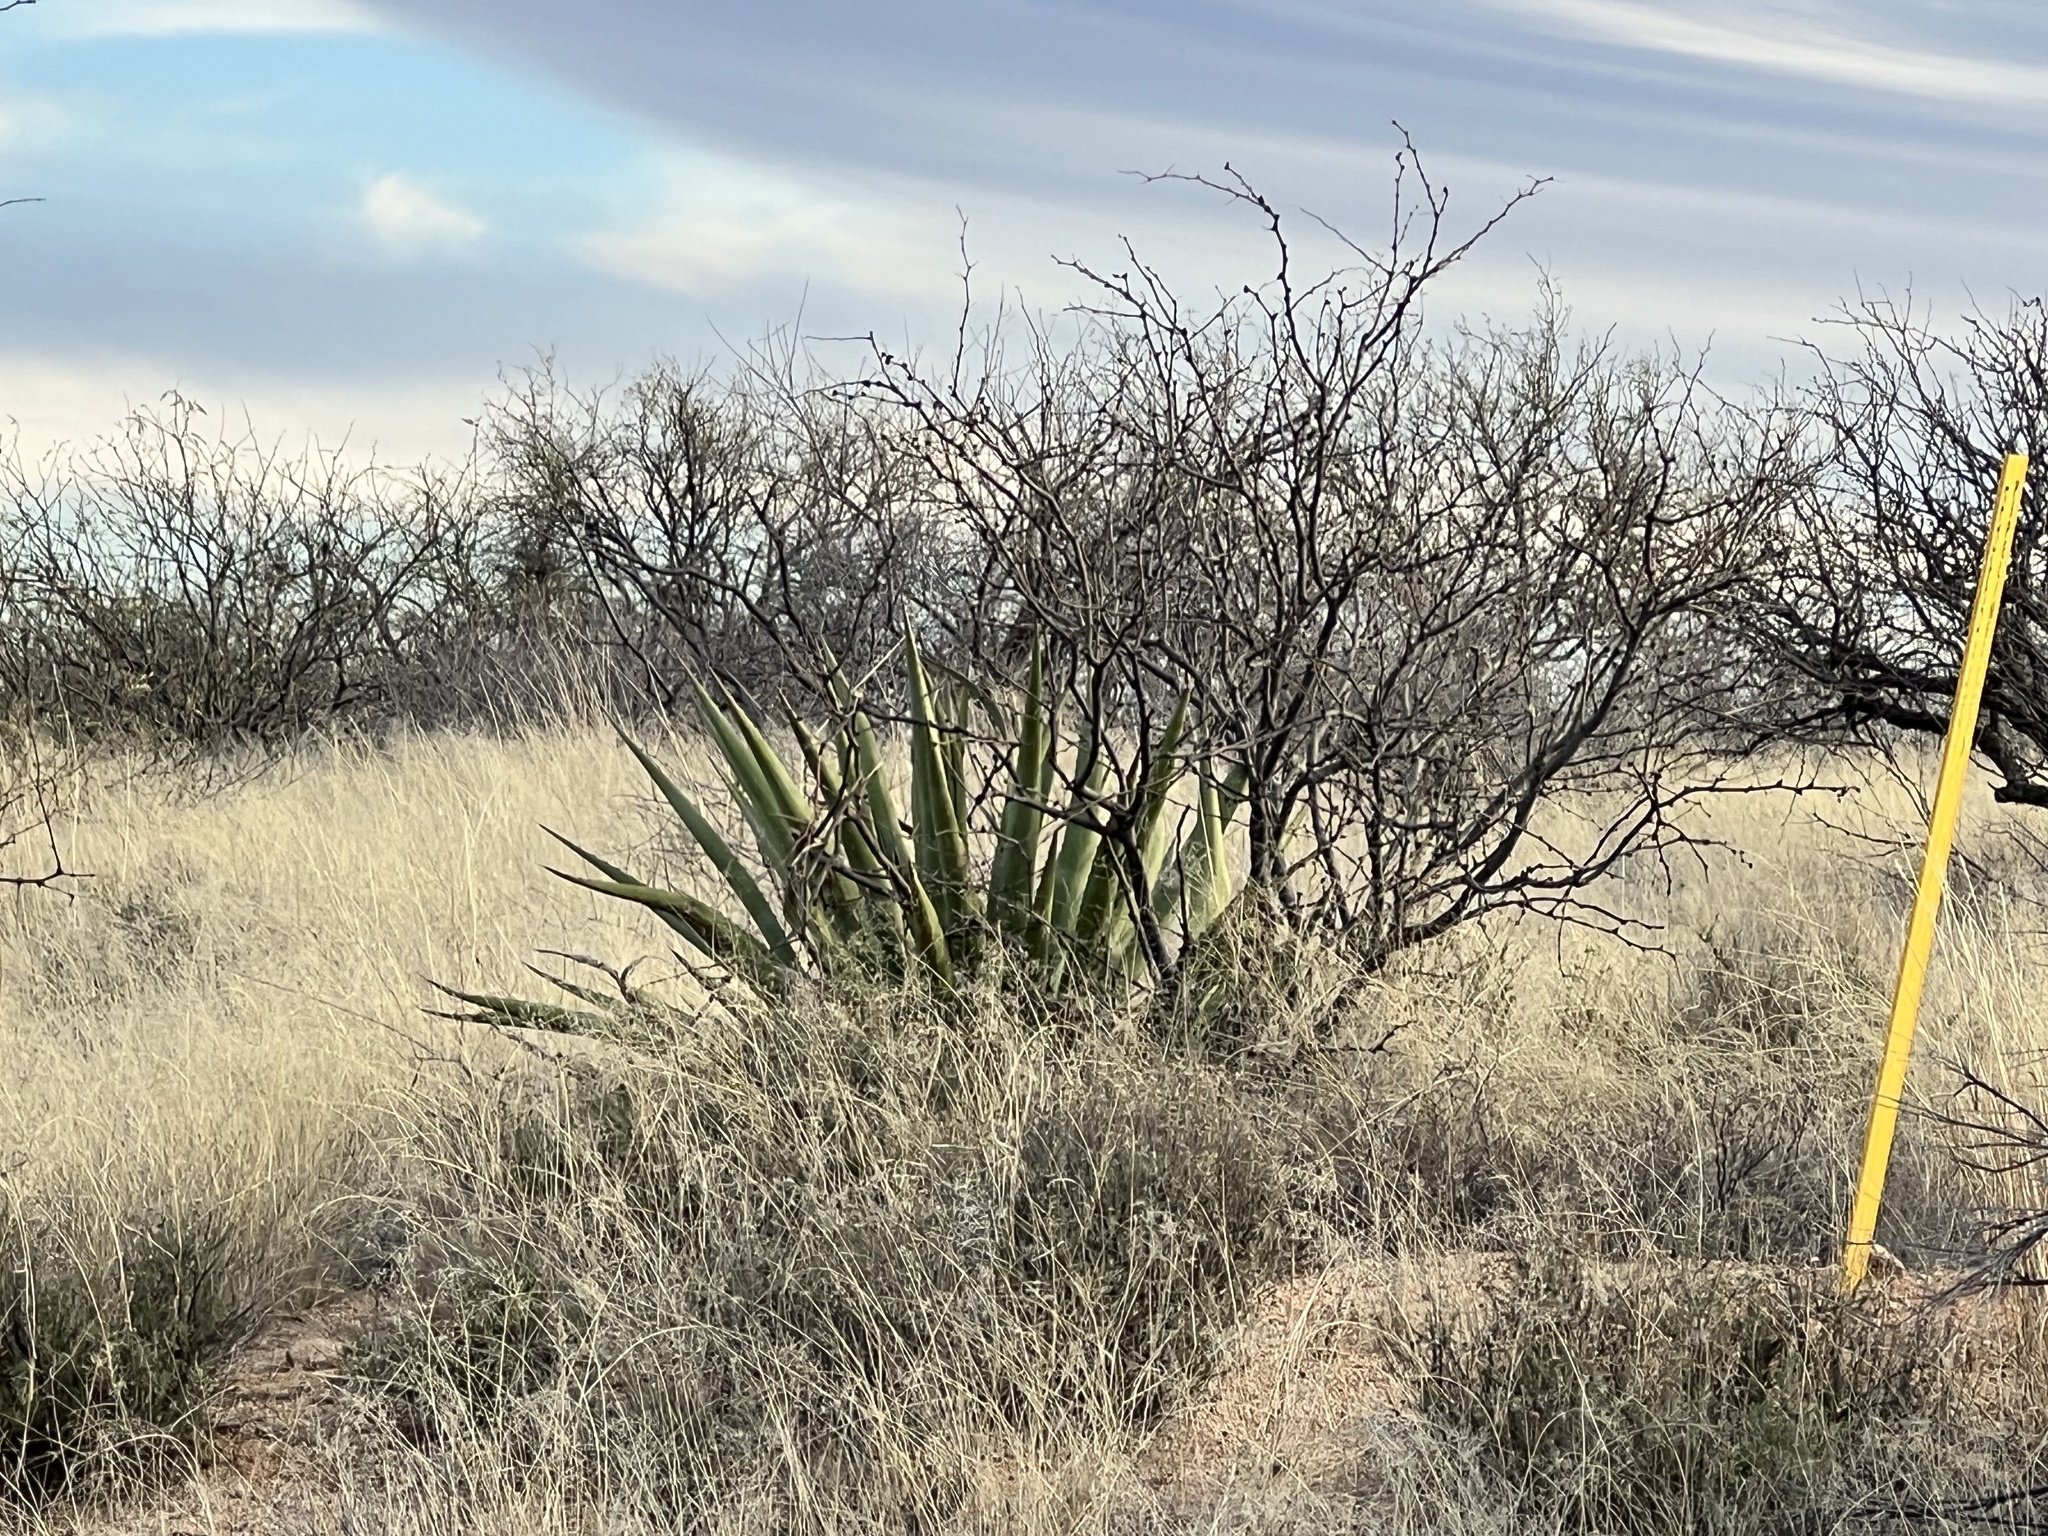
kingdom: Plantae
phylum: Tracheophyta
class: Liliopsida
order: Asparagales
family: Asparagaceae
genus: Agave
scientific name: Agave palmeri
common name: Palmer agave
